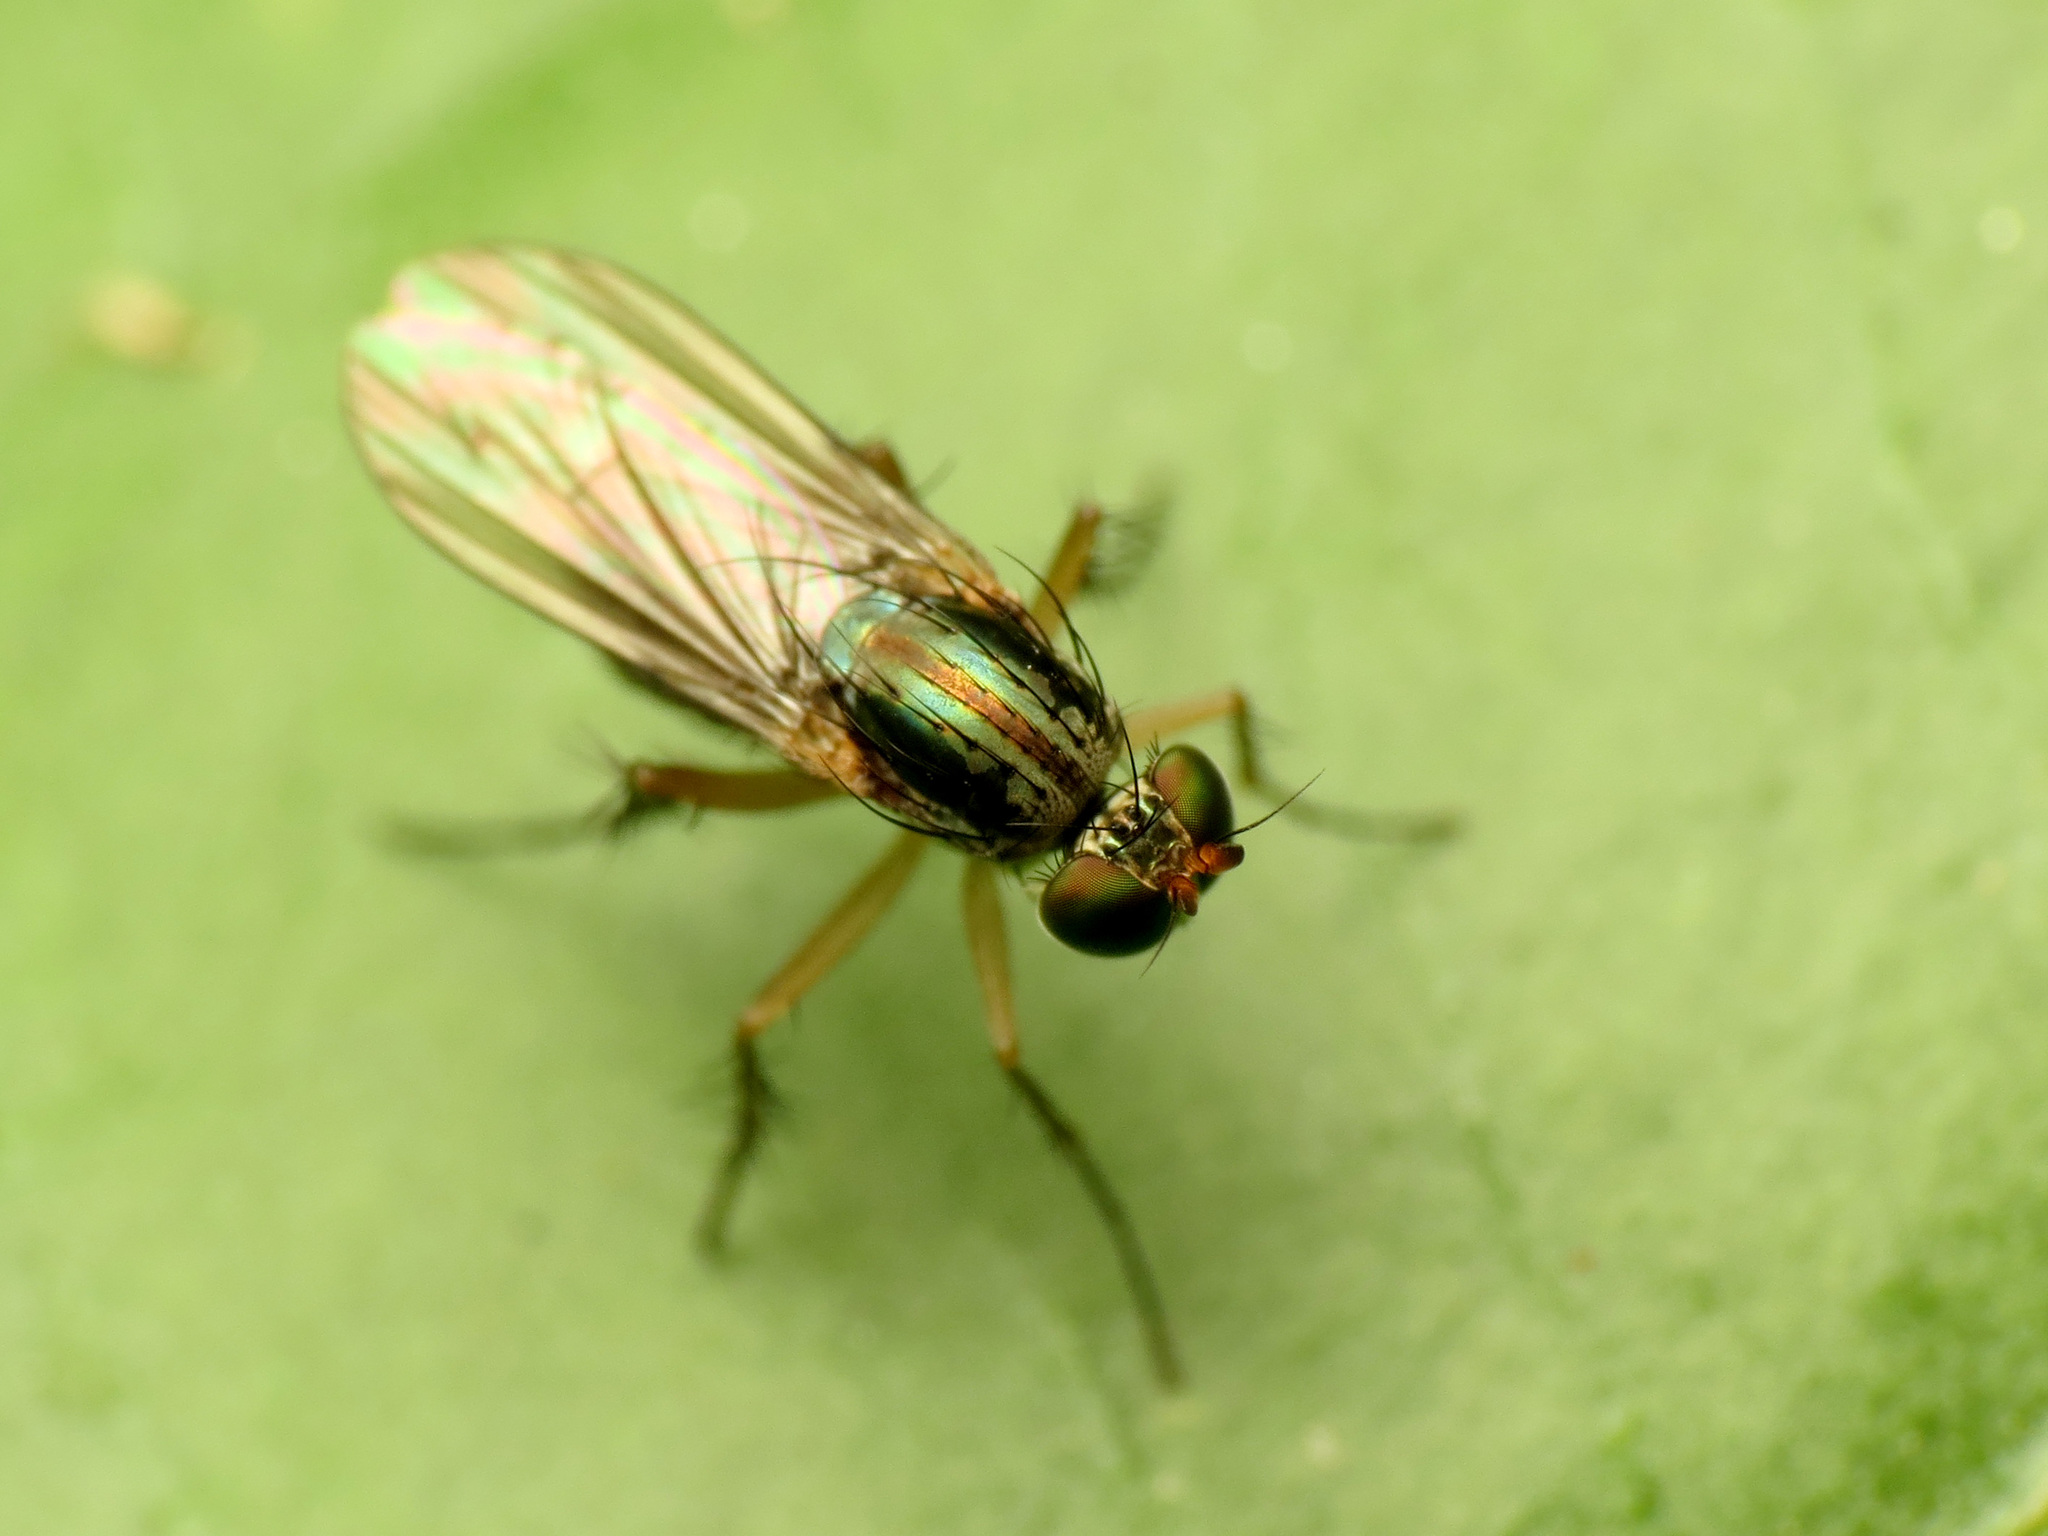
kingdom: Animalia
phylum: Arthropoda
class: Insecta
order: Diptera
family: Dolichopodidae
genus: Dolichopus
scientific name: Dolichopus reflectus
